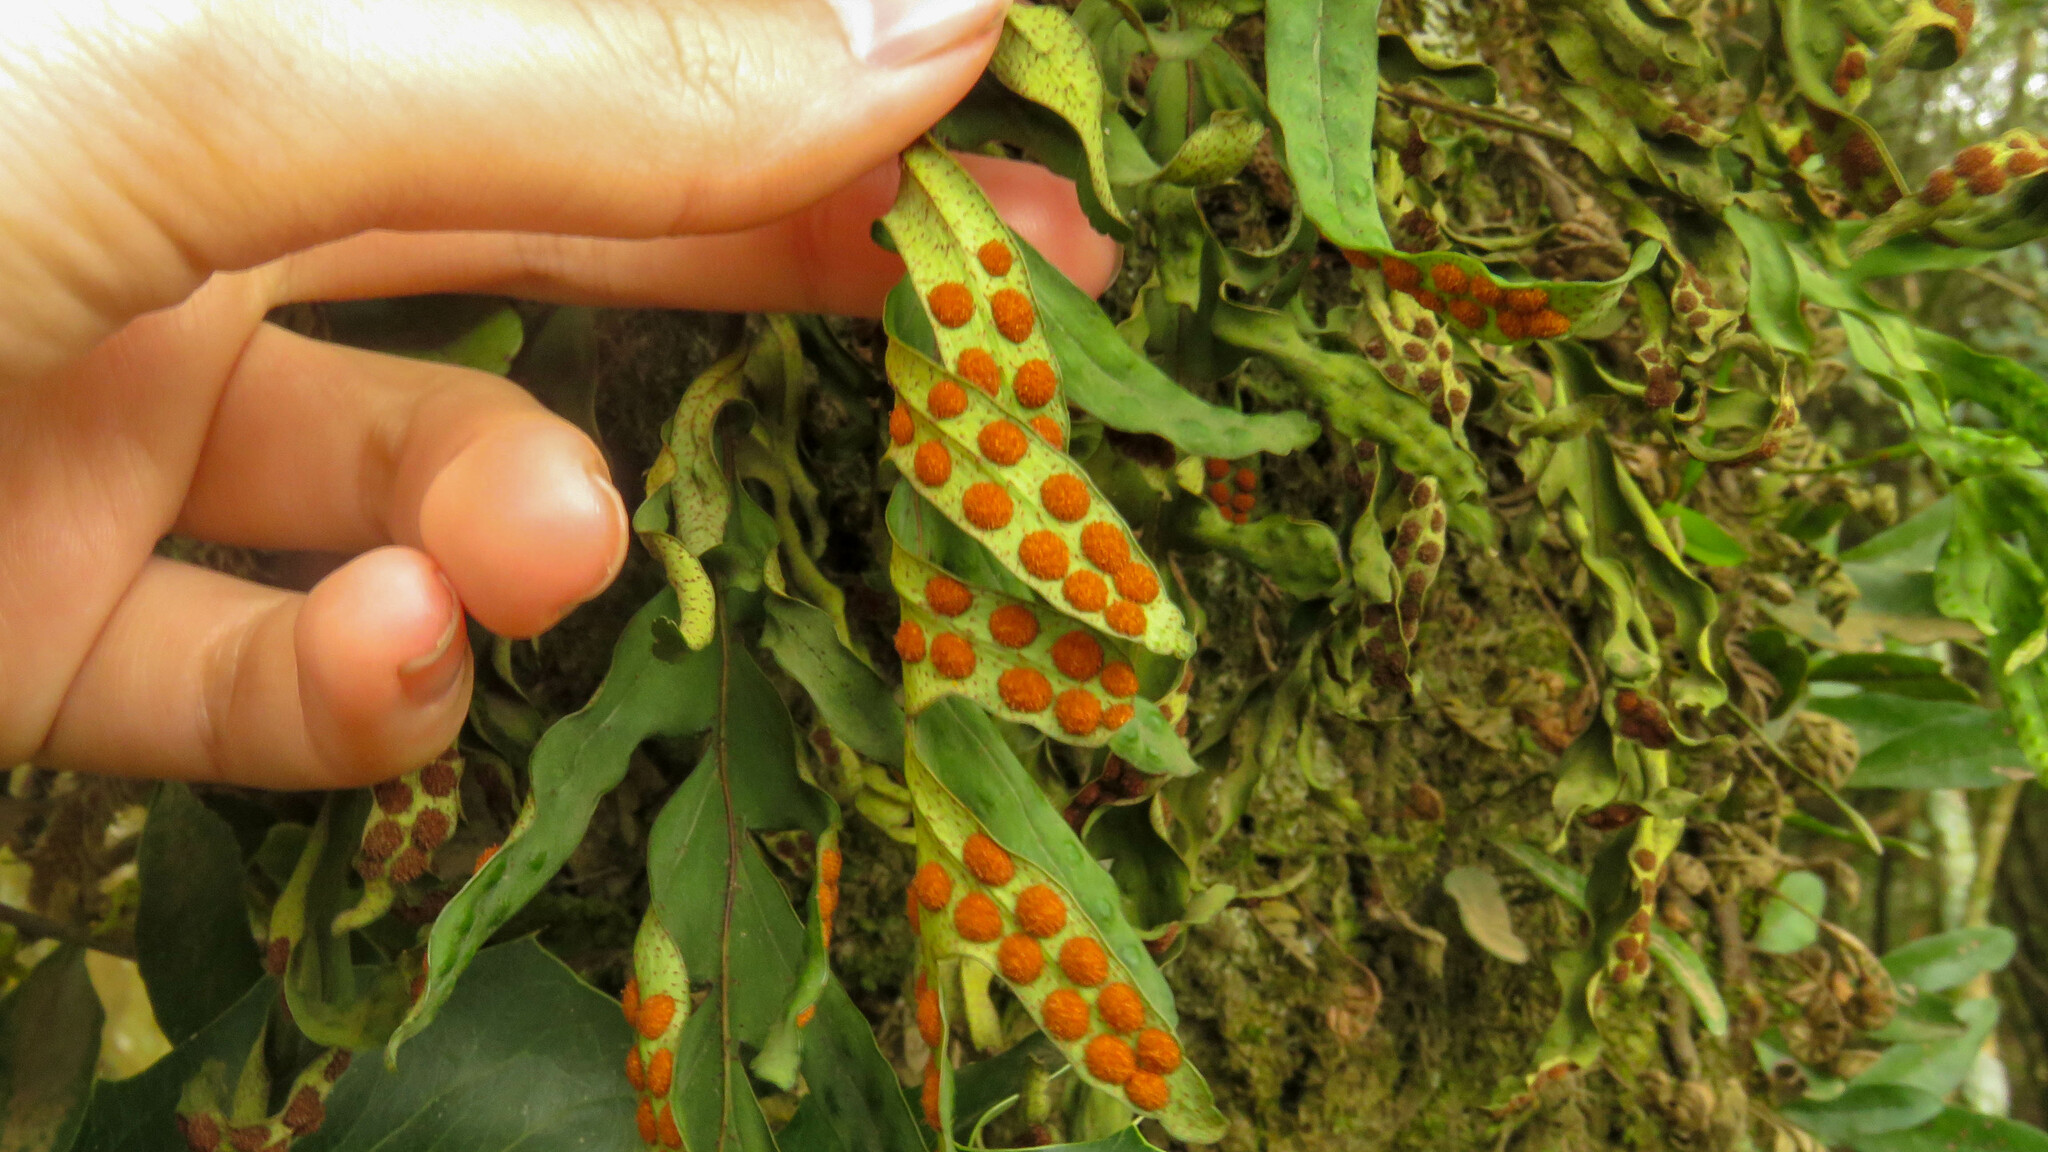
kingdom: Plantae
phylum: Tracheophyta
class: Polypodiopsida
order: Polypodiales
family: Polypodiaceae
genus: Pleopeltis
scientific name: Pleopeltis pleopeltifolia
